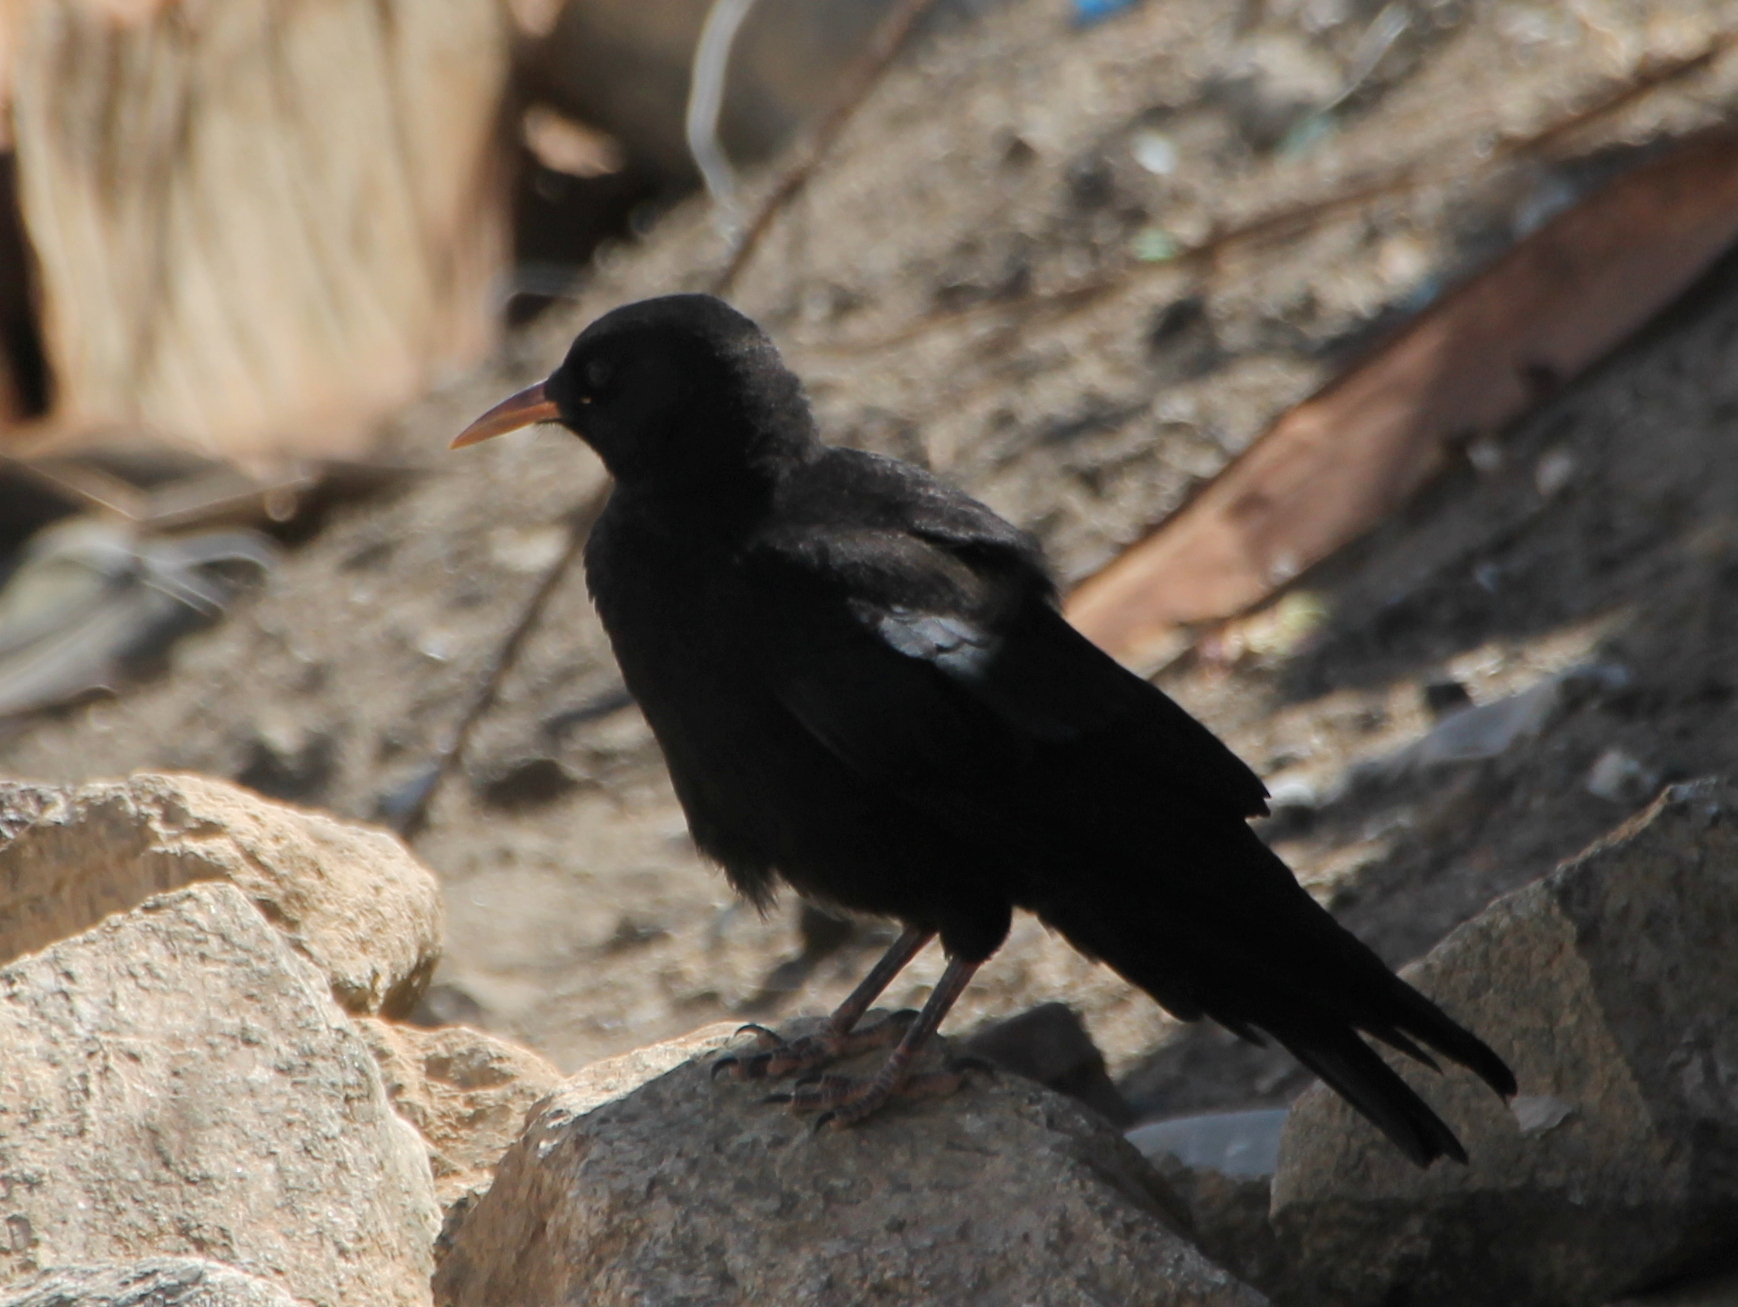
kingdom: Animalia
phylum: Chordata
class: Aves
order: Passeriformes
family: Corvidae
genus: Pyrrhocorax
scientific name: Pyrrhocorax pyrrhocorax
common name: Red-billed chough
